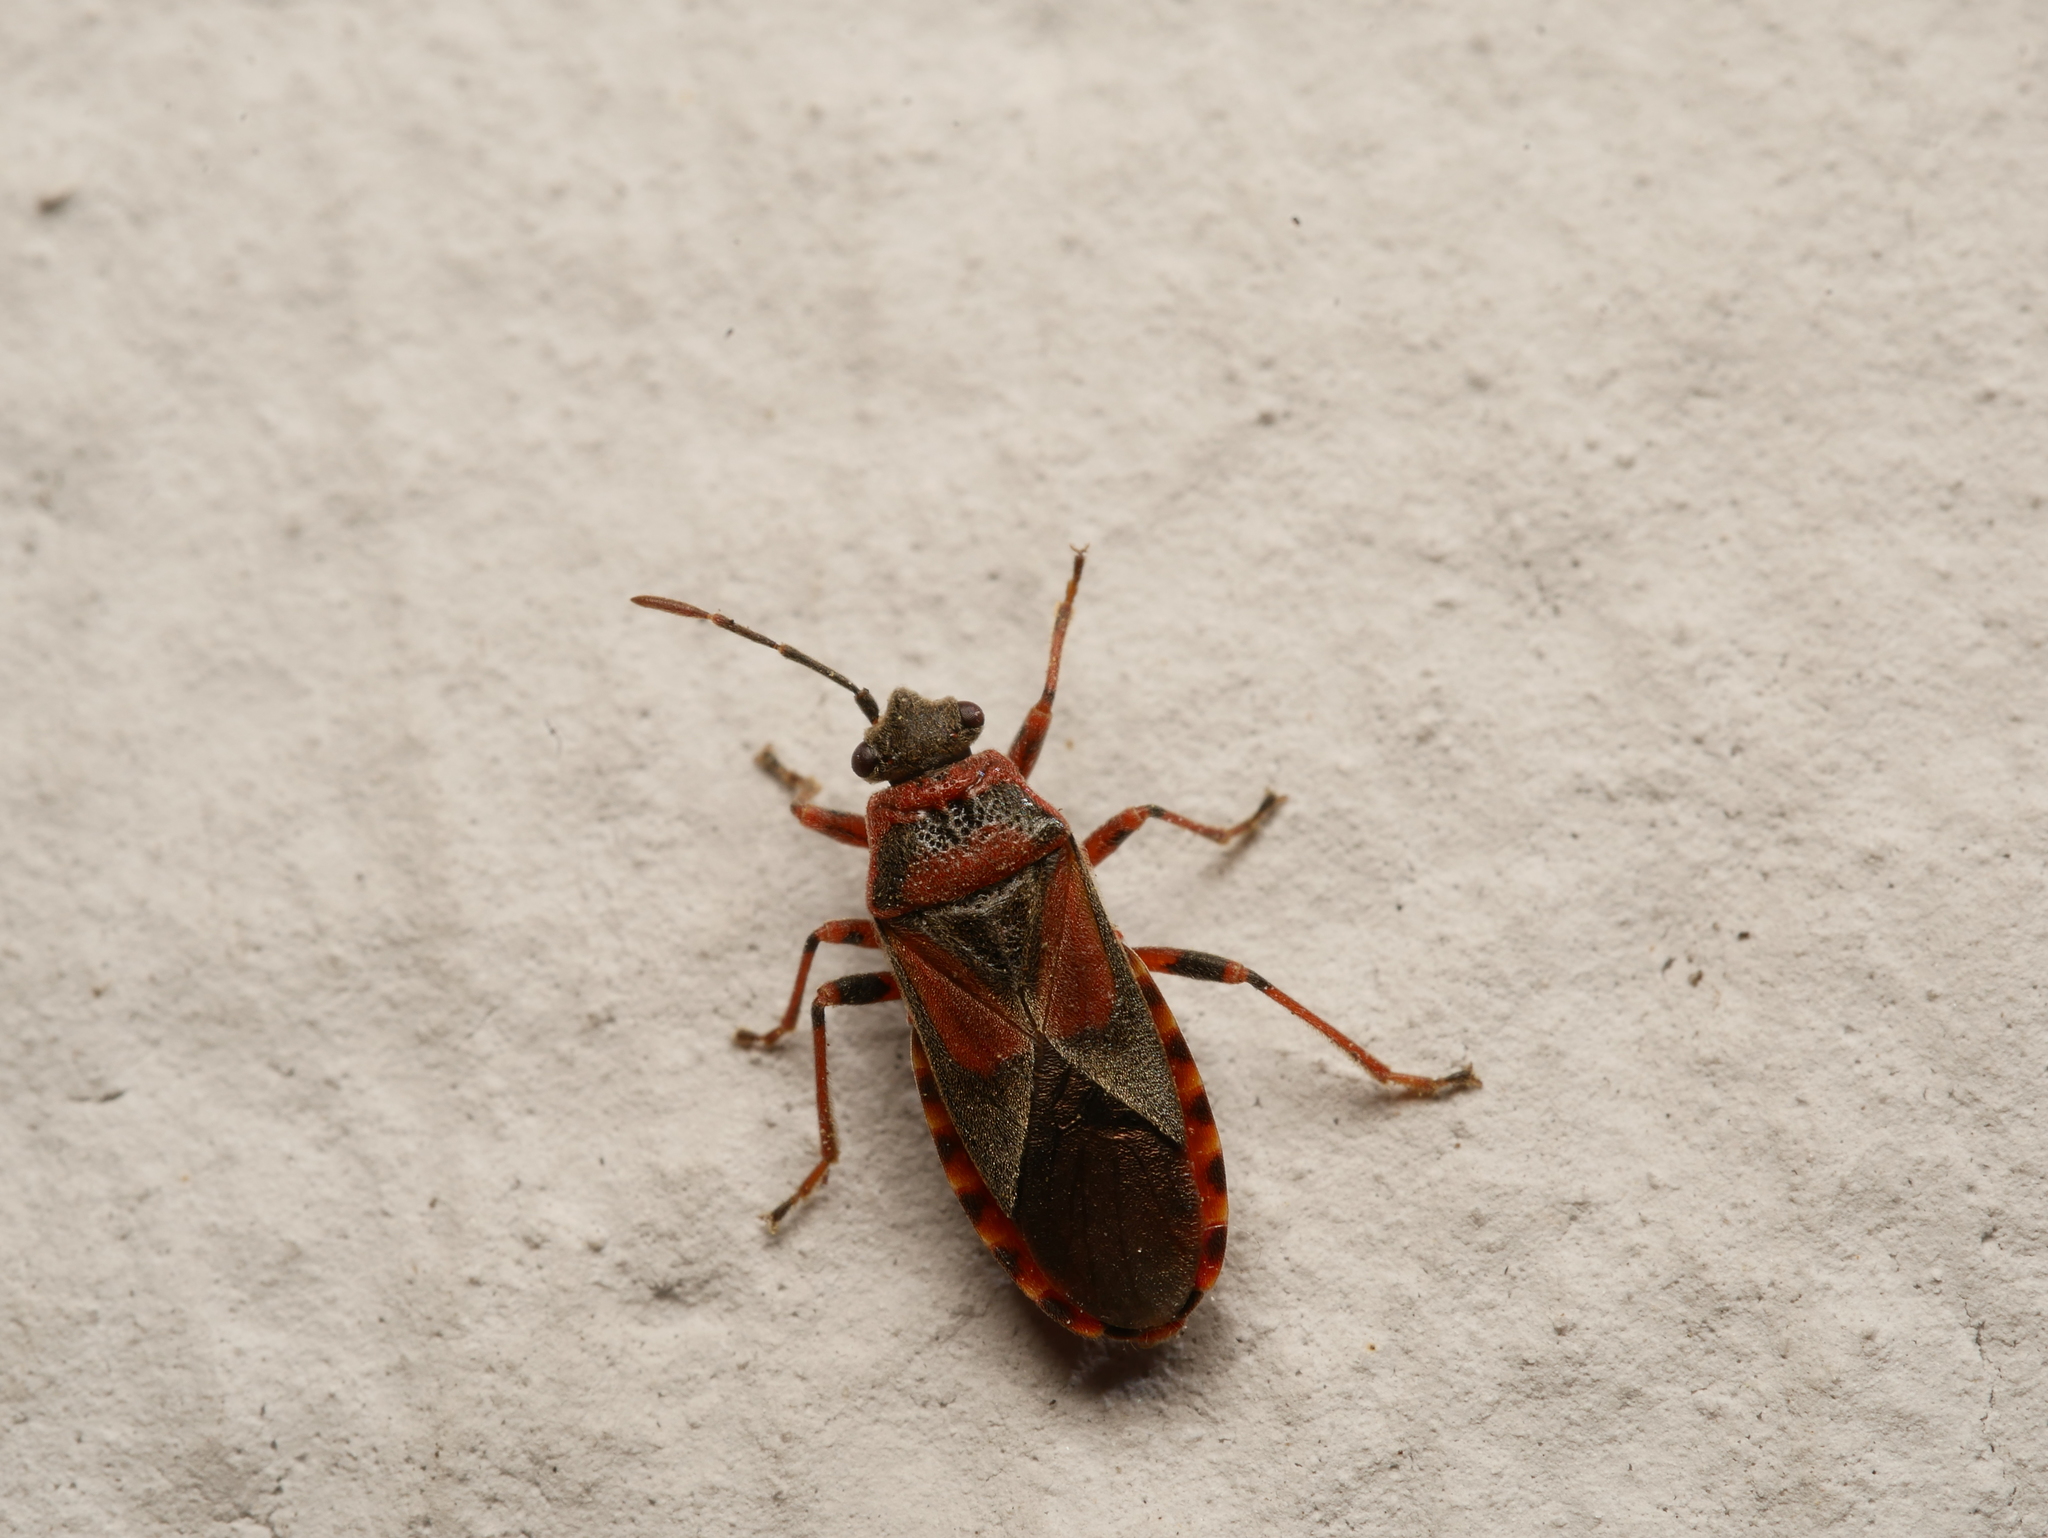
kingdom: Animalia
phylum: Arthropoda
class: Insecta
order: Hemiptera
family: Lygaeidae
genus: Arocatus
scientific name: Arocatus melanocephalus
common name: Lygaeid bug
